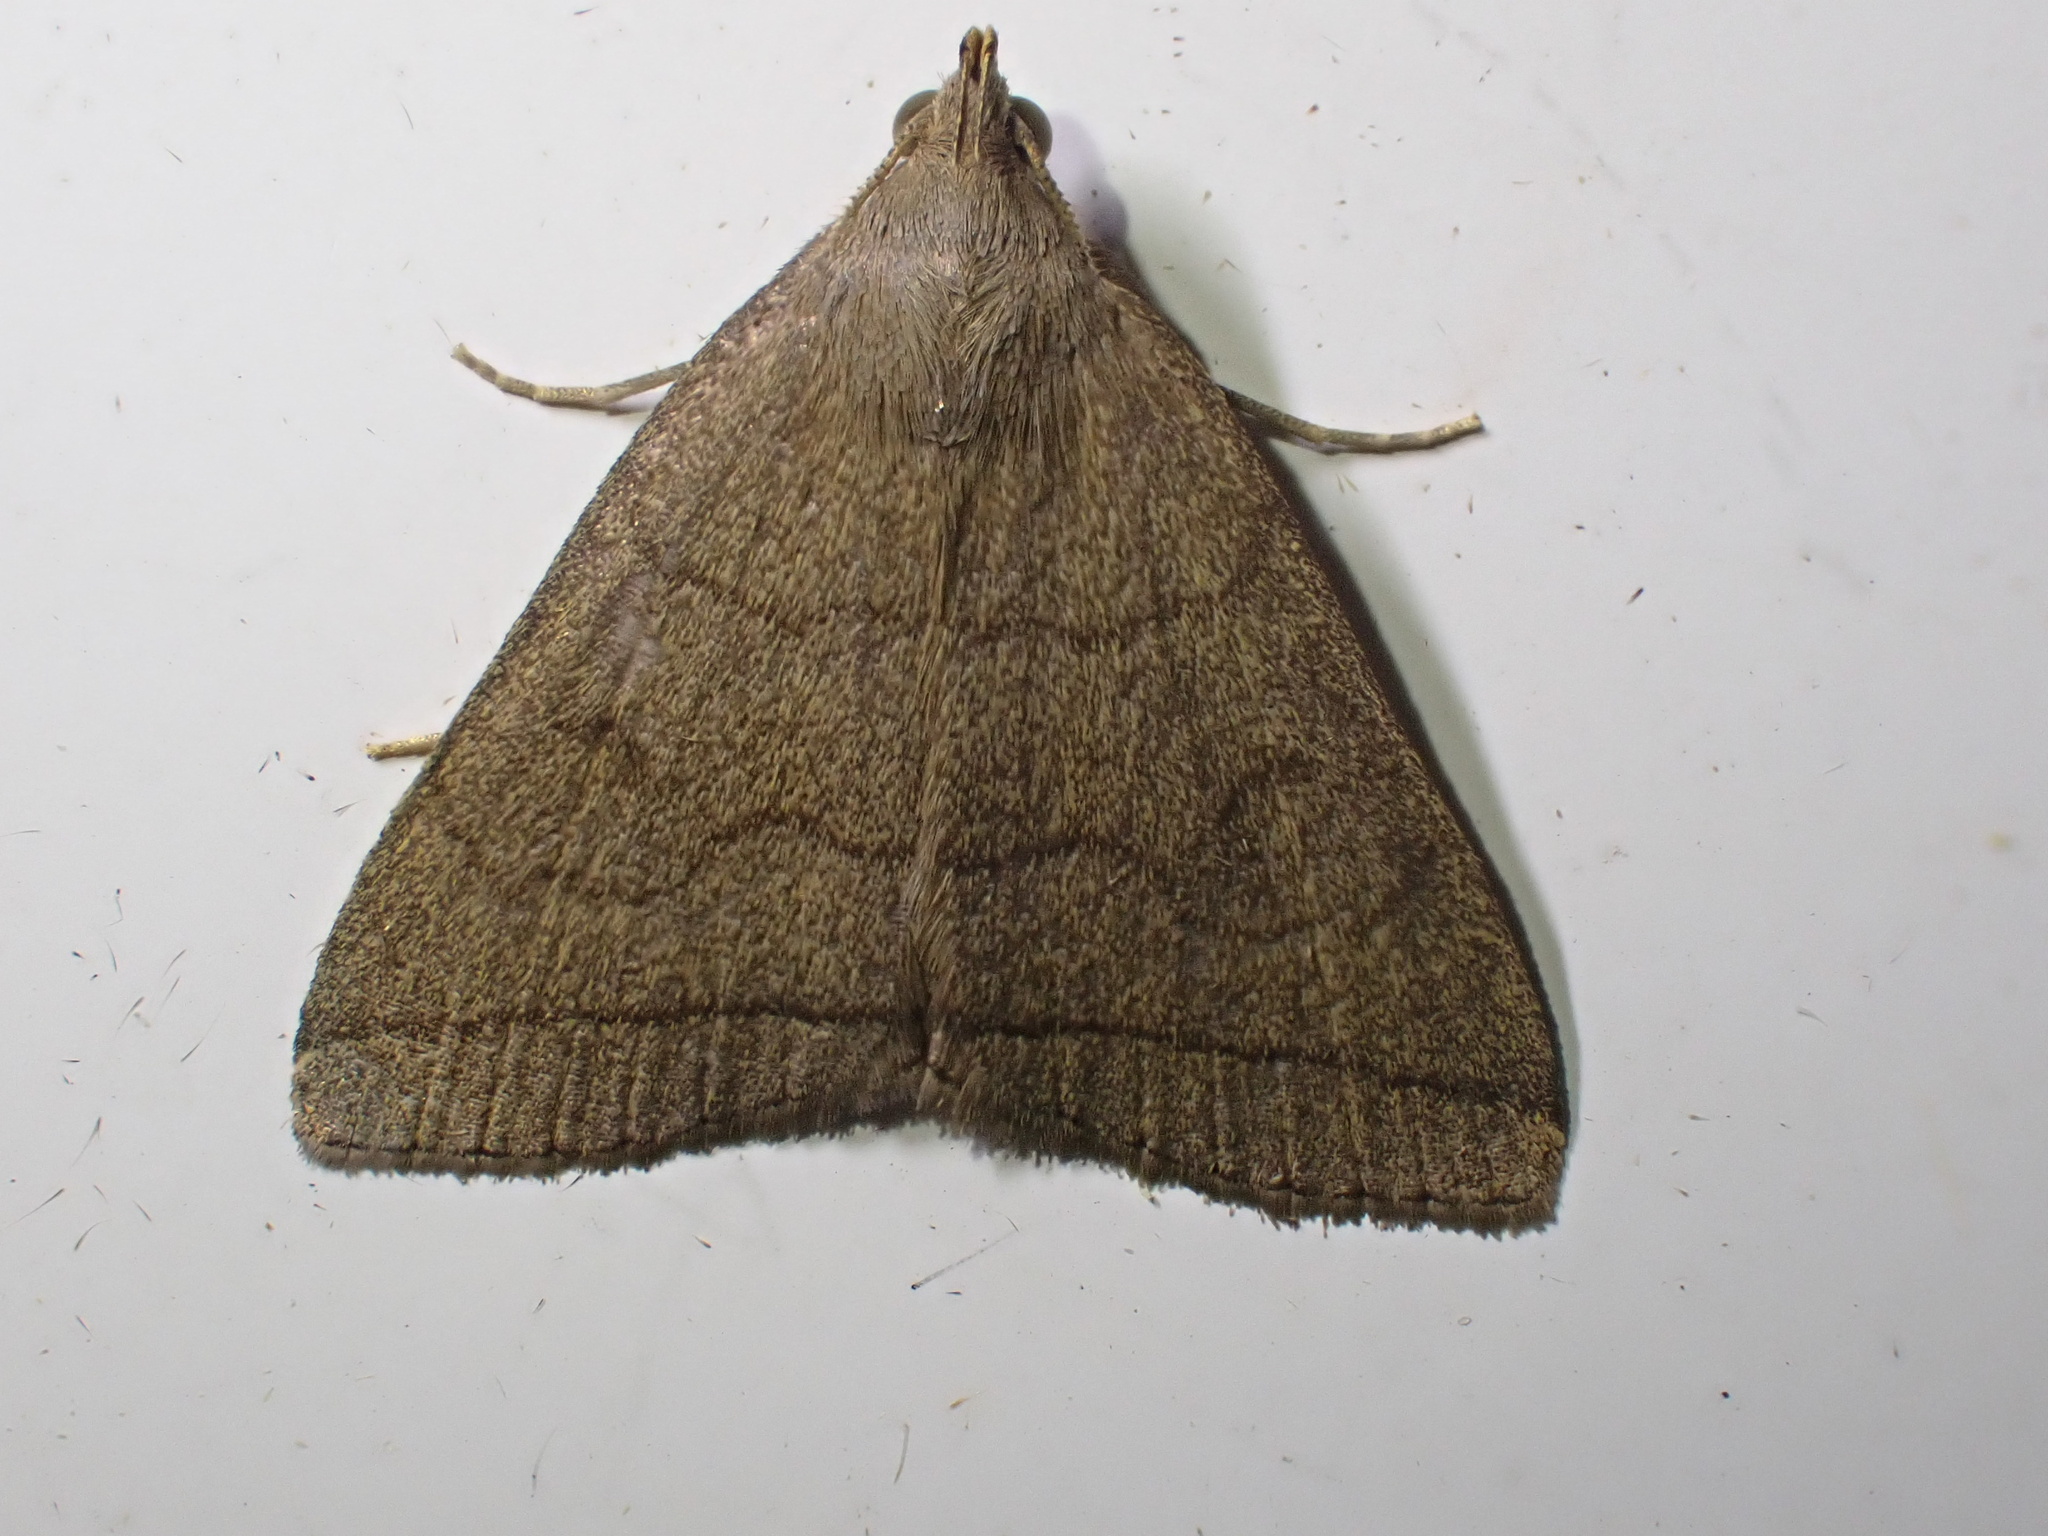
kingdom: Animalia
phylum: Arthropoda
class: Insecta
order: Lepidoptera
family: Erebidae
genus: Herminia
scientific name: Herminia tarsipennalis
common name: Fan-foot
